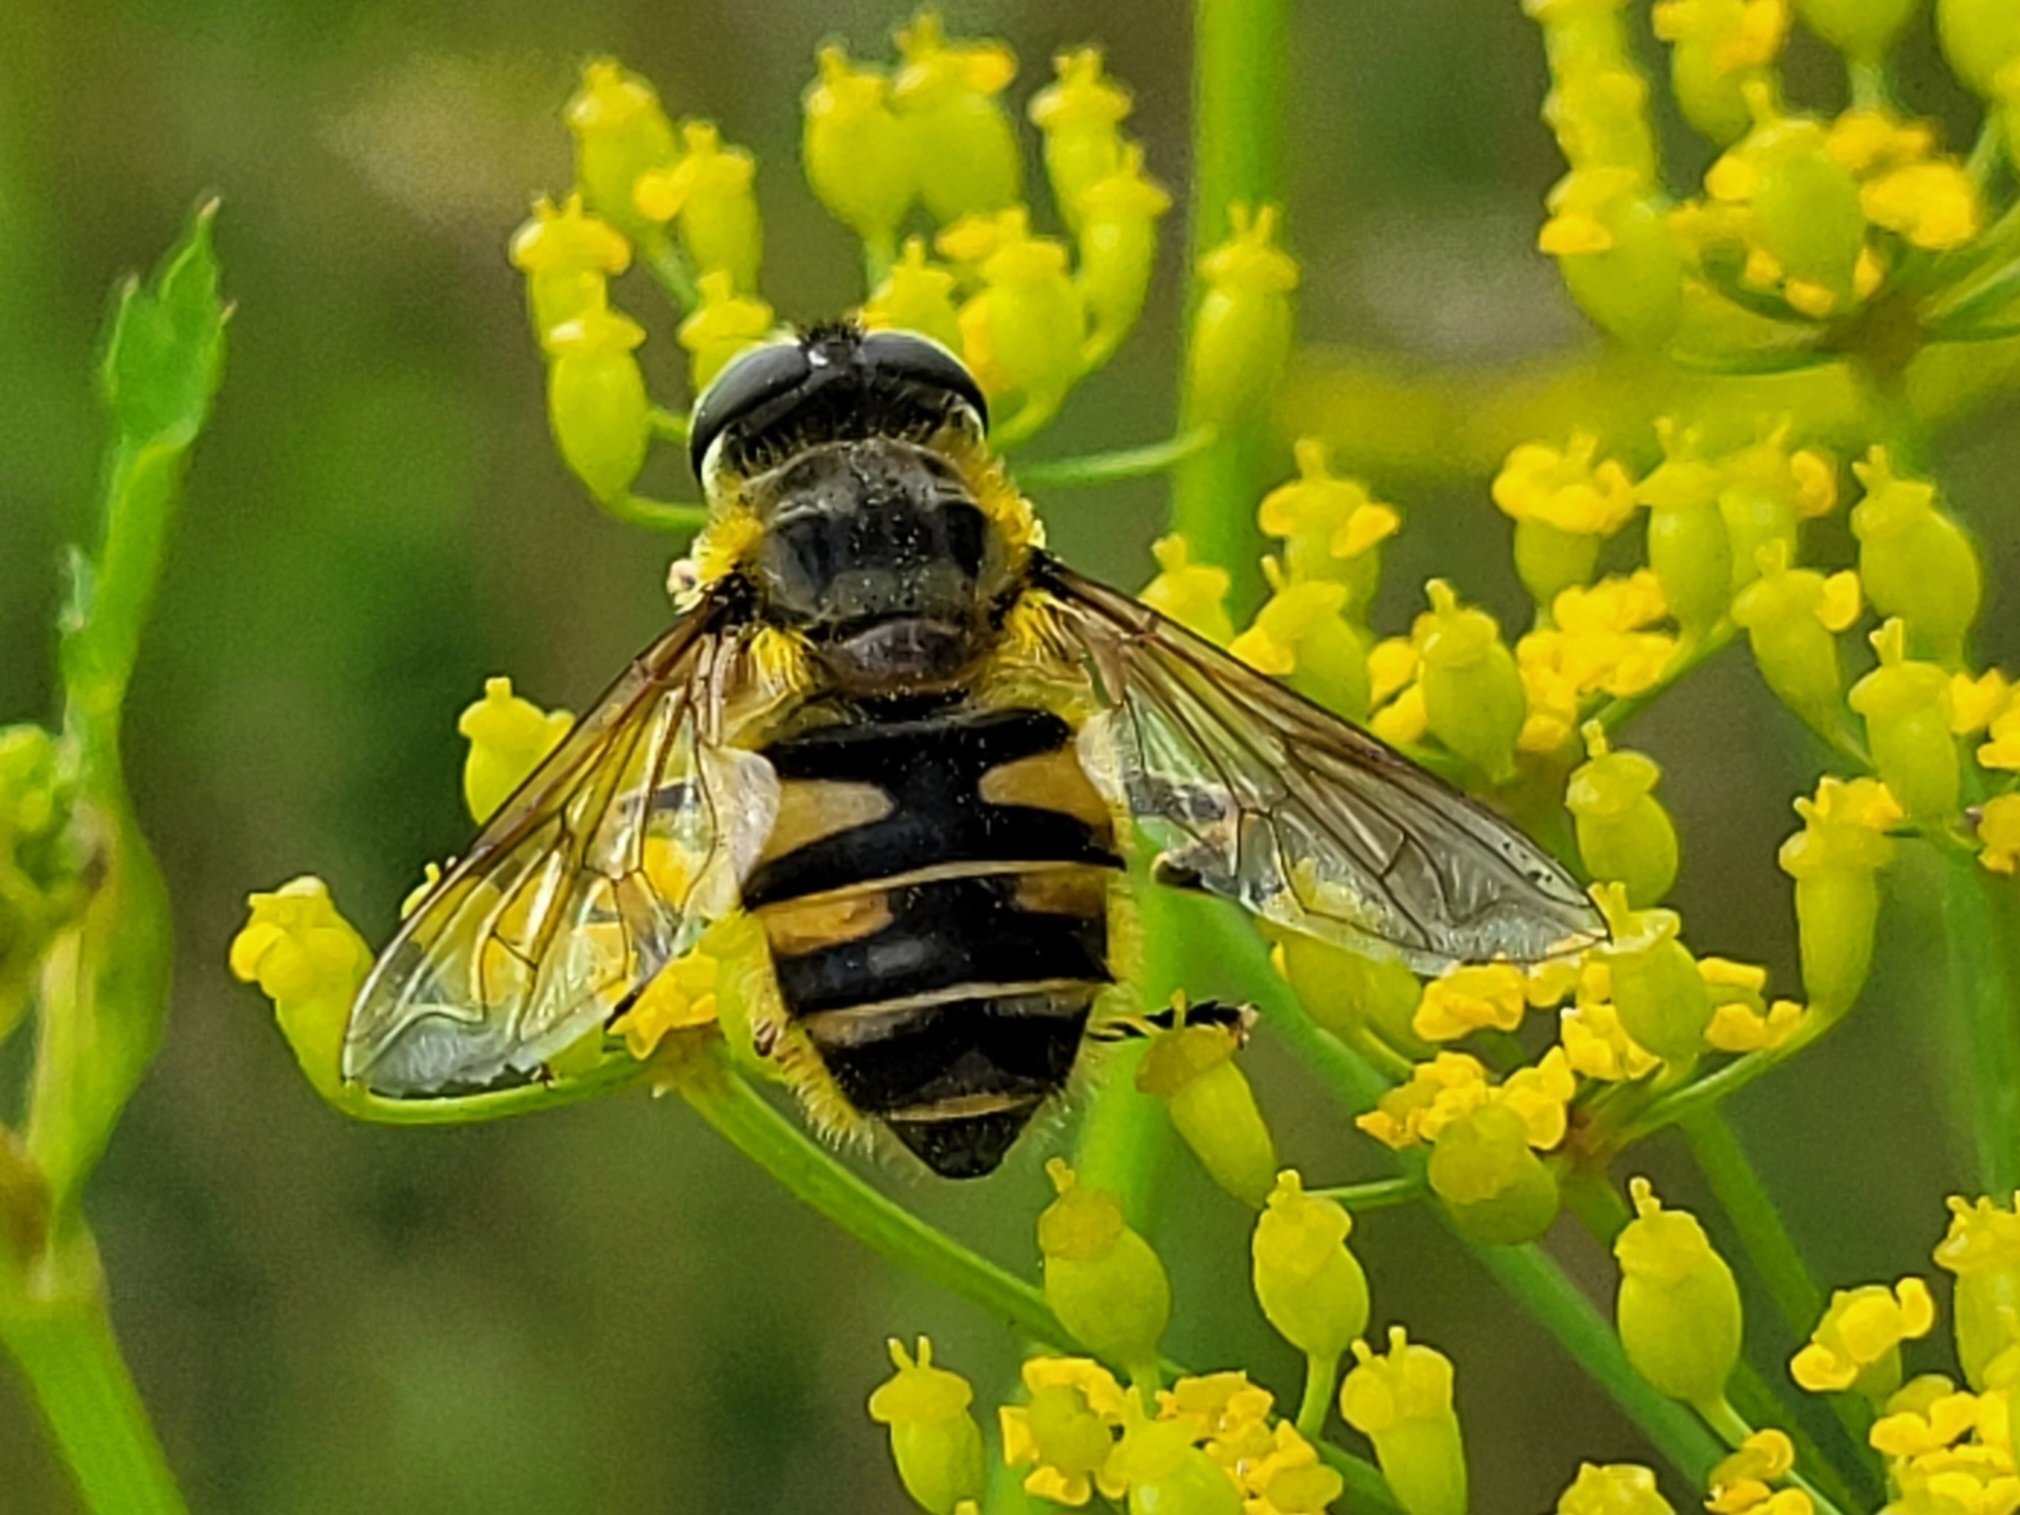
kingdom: Animalia
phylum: Arthropoda
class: Insecta
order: Diptera
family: Syrphidae
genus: Myathropa
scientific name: Myathropa florea
